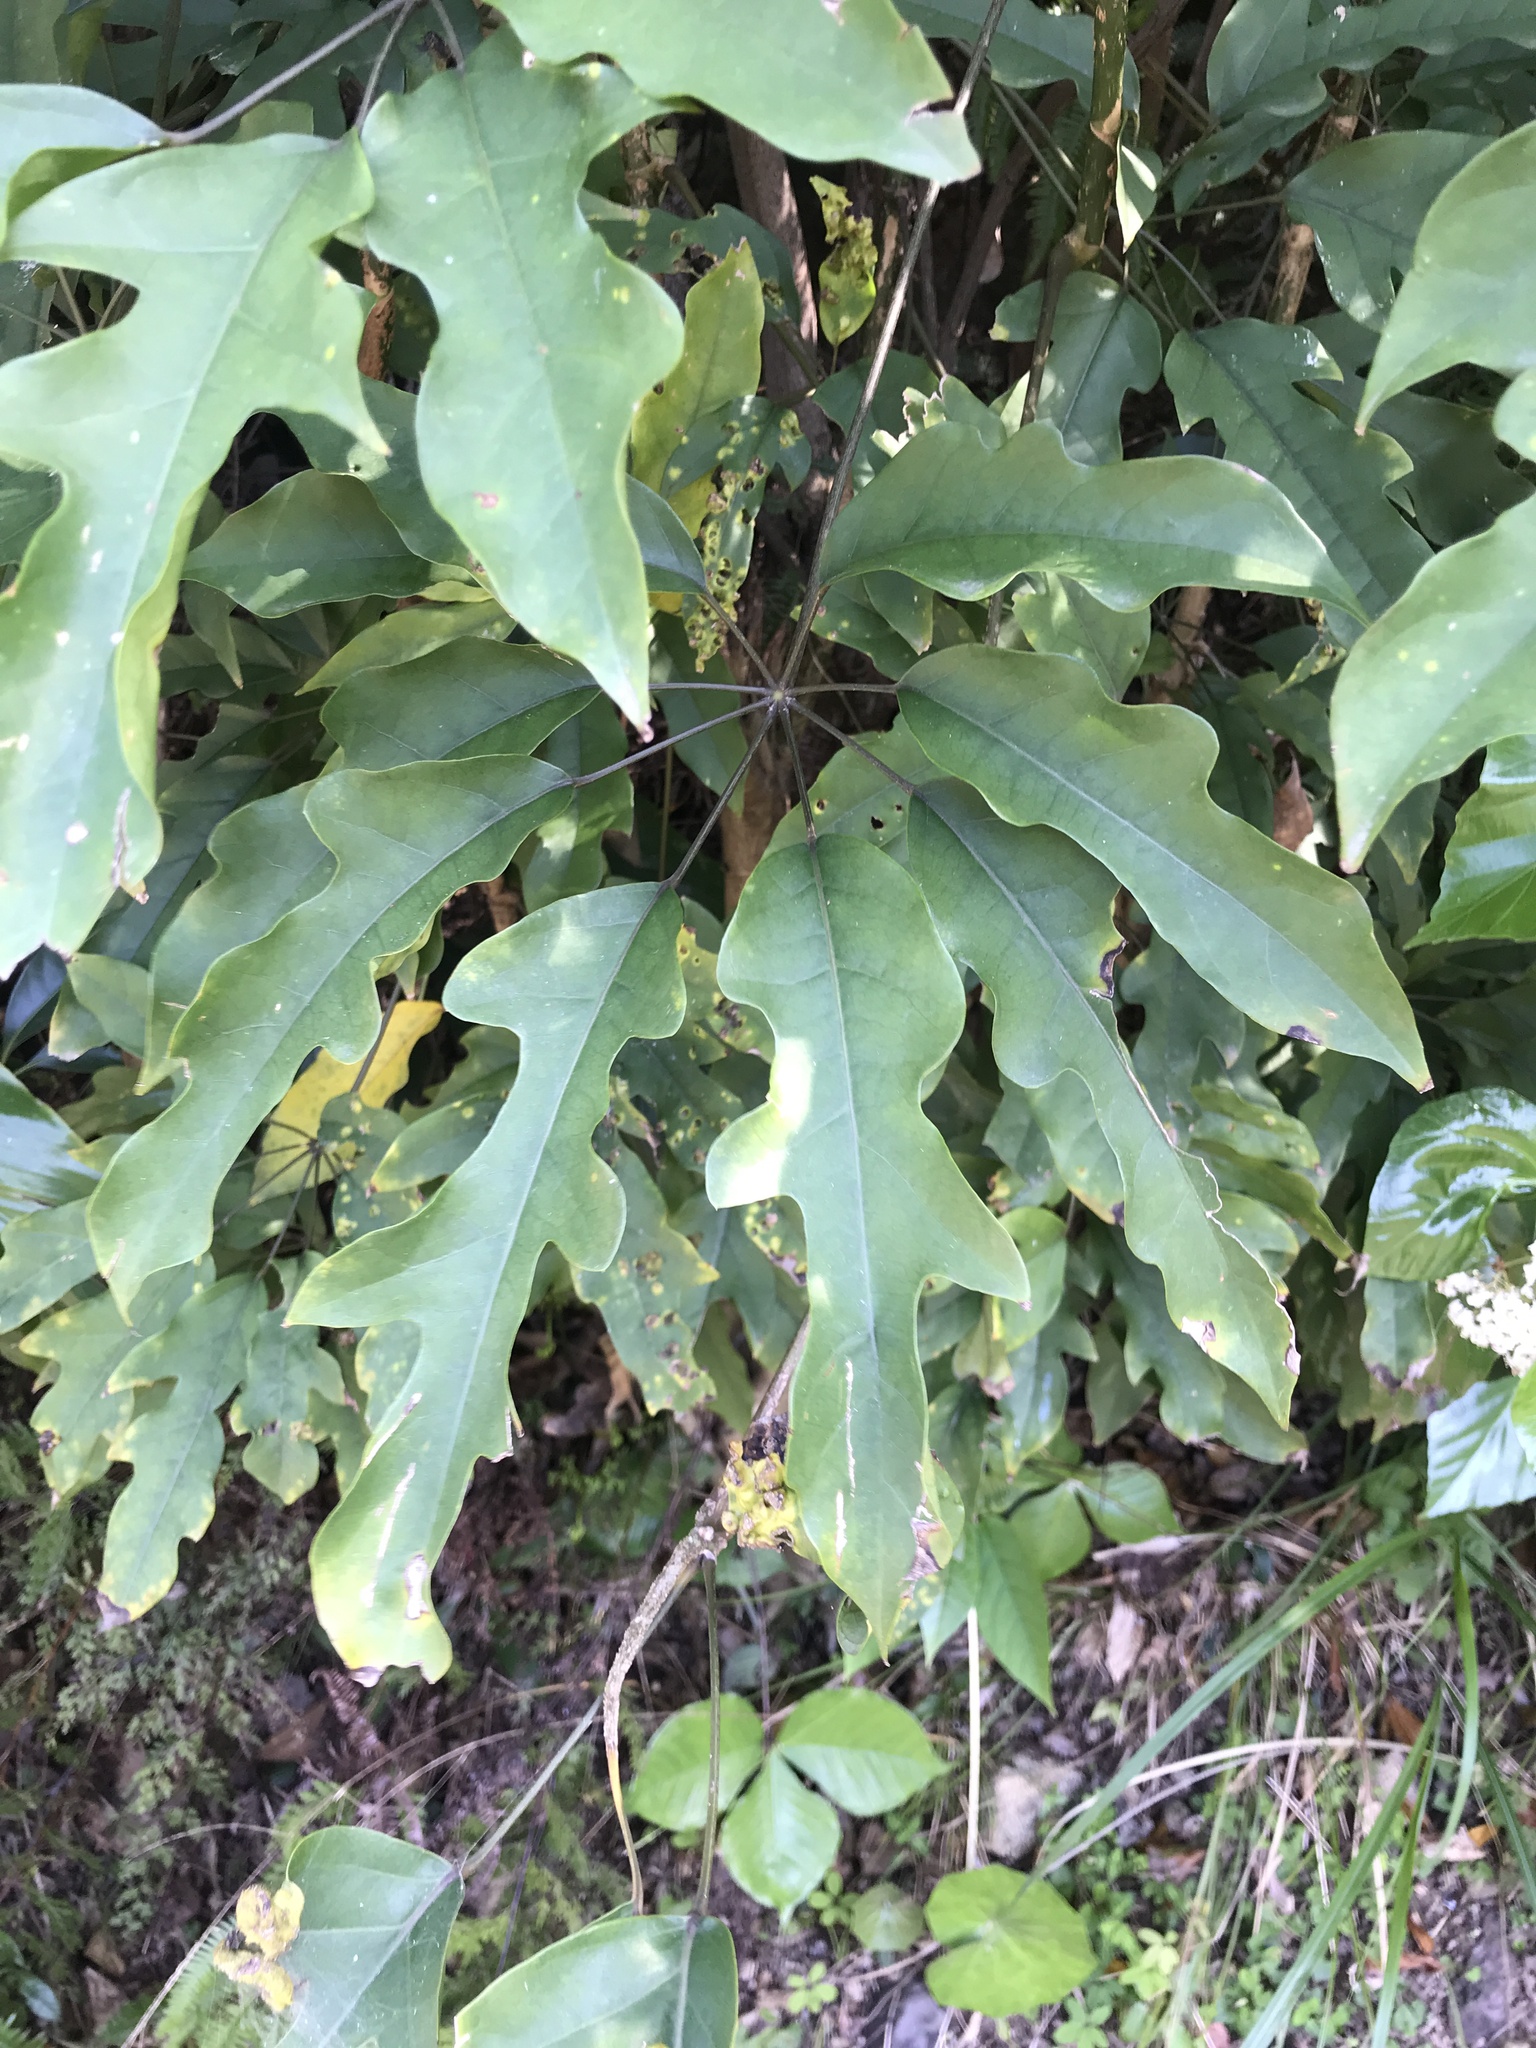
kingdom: Plantae
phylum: Tracheophyta
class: Magnoliopsida
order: Apiales
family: Araliaceae
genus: Heptapleurum
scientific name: Heptapleurum heptaphyllum
